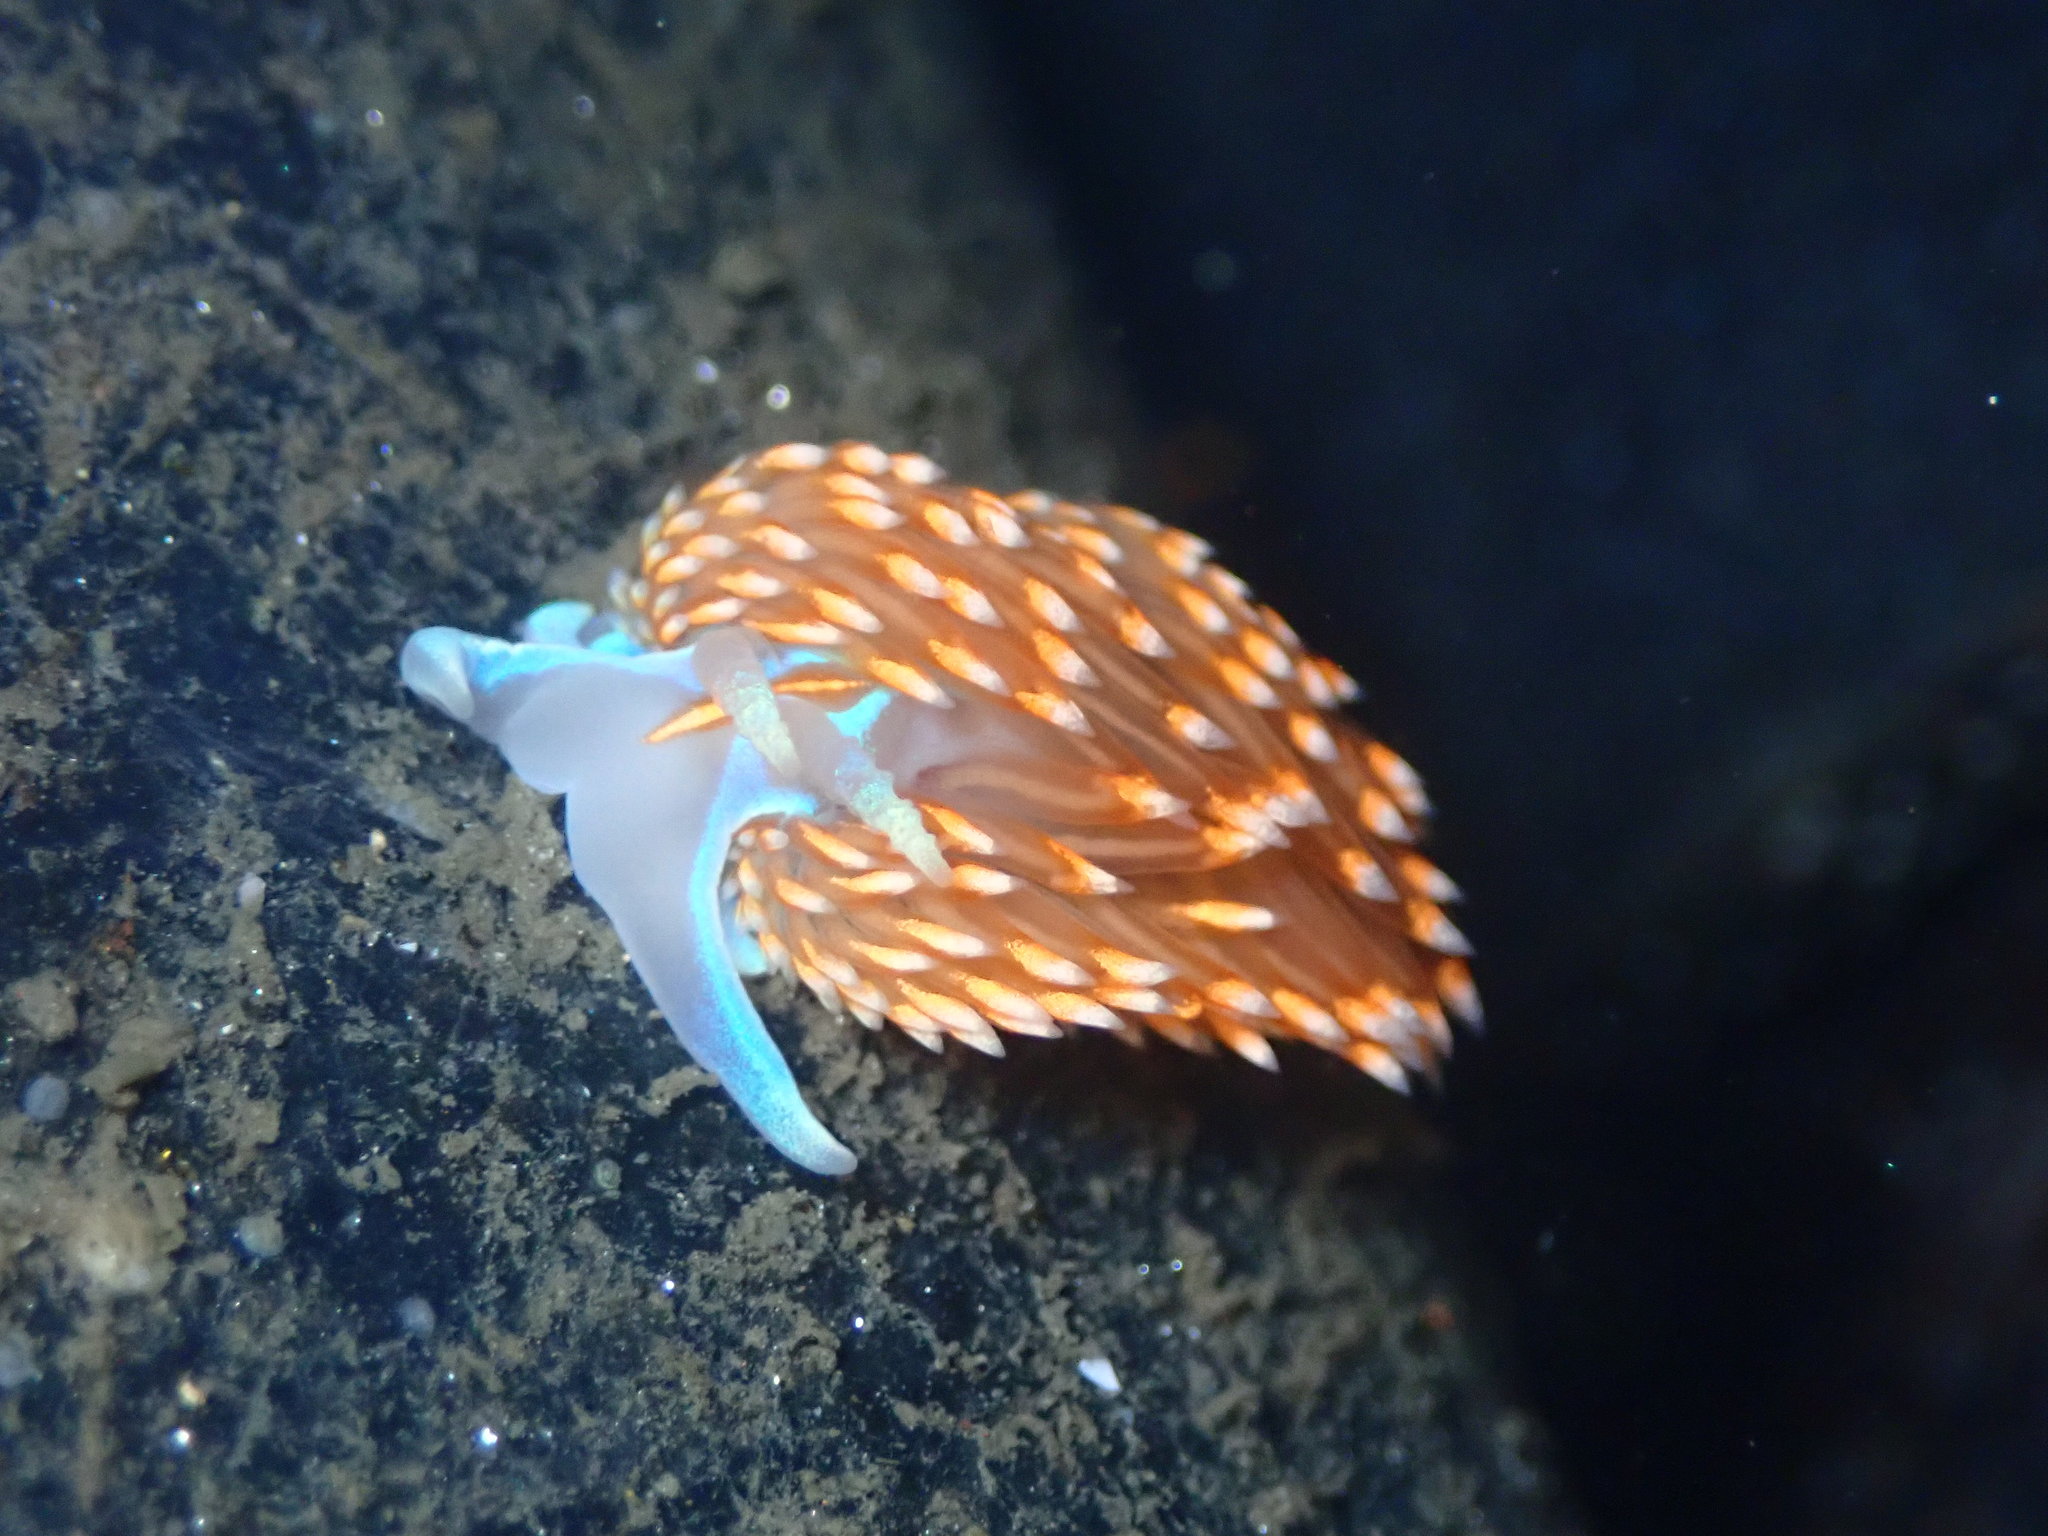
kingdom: Animalia
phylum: Mollusca
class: Gastropoda
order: Nudibranchia
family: Myrrhinidae
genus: Hermissenda
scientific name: Hermissenda opalescens
